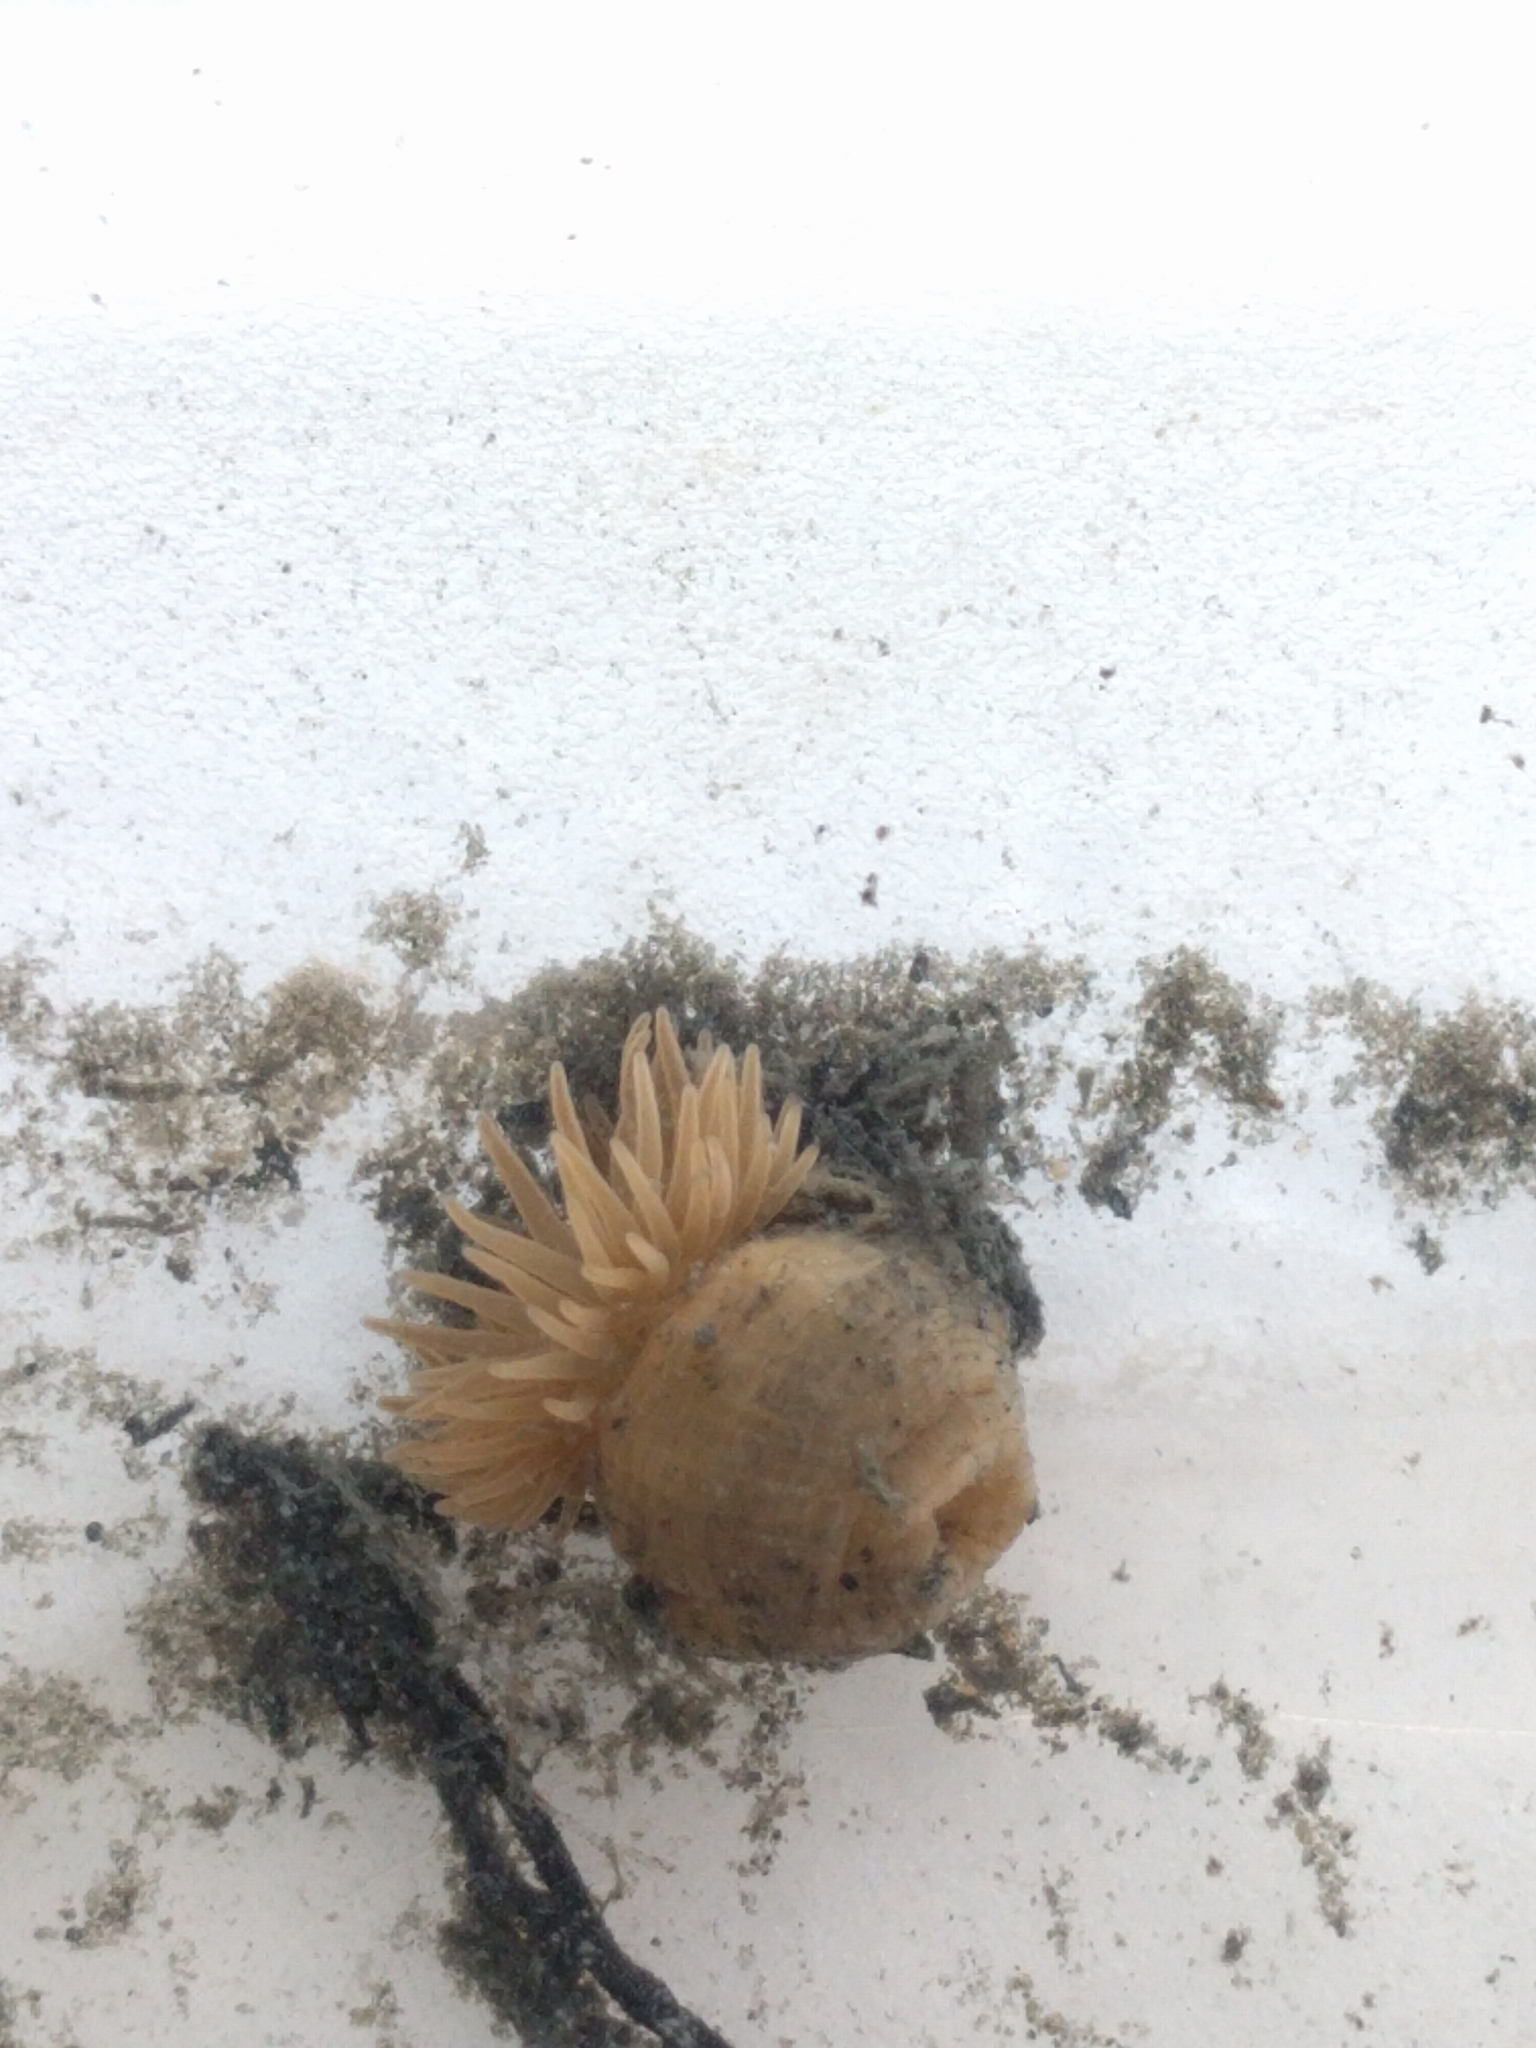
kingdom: Animalia
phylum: Cnidaria
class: Anthozoa
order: Actiniaria
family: Diadumenidae
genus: Diadumene
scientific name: Diadumene leucolena
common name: White anemone
